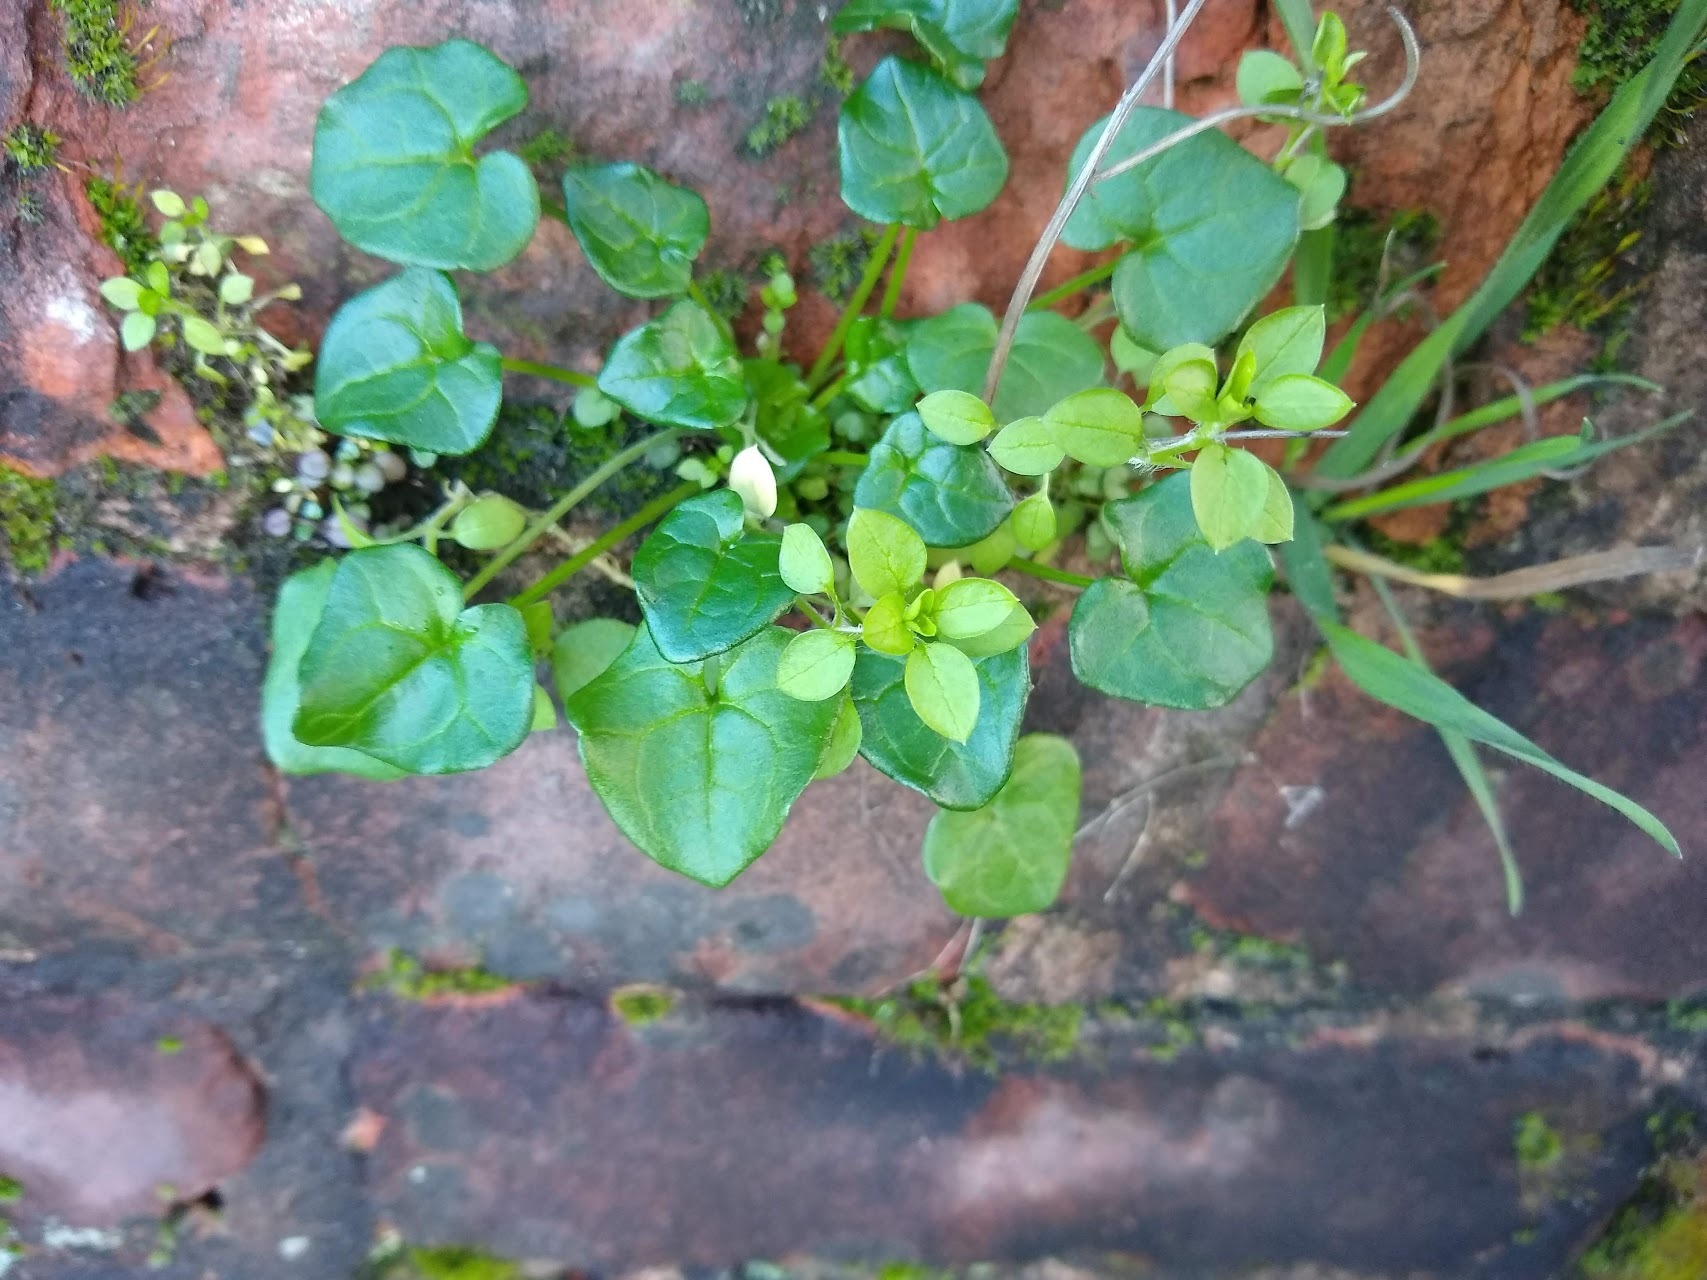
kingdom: Plantae
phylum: Tracheophyta
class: Magnoliopsida
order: Brassicales
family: Brassicaceae
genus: Cochlearia
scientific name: Cochlearia danica
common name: Early scurvygrass
